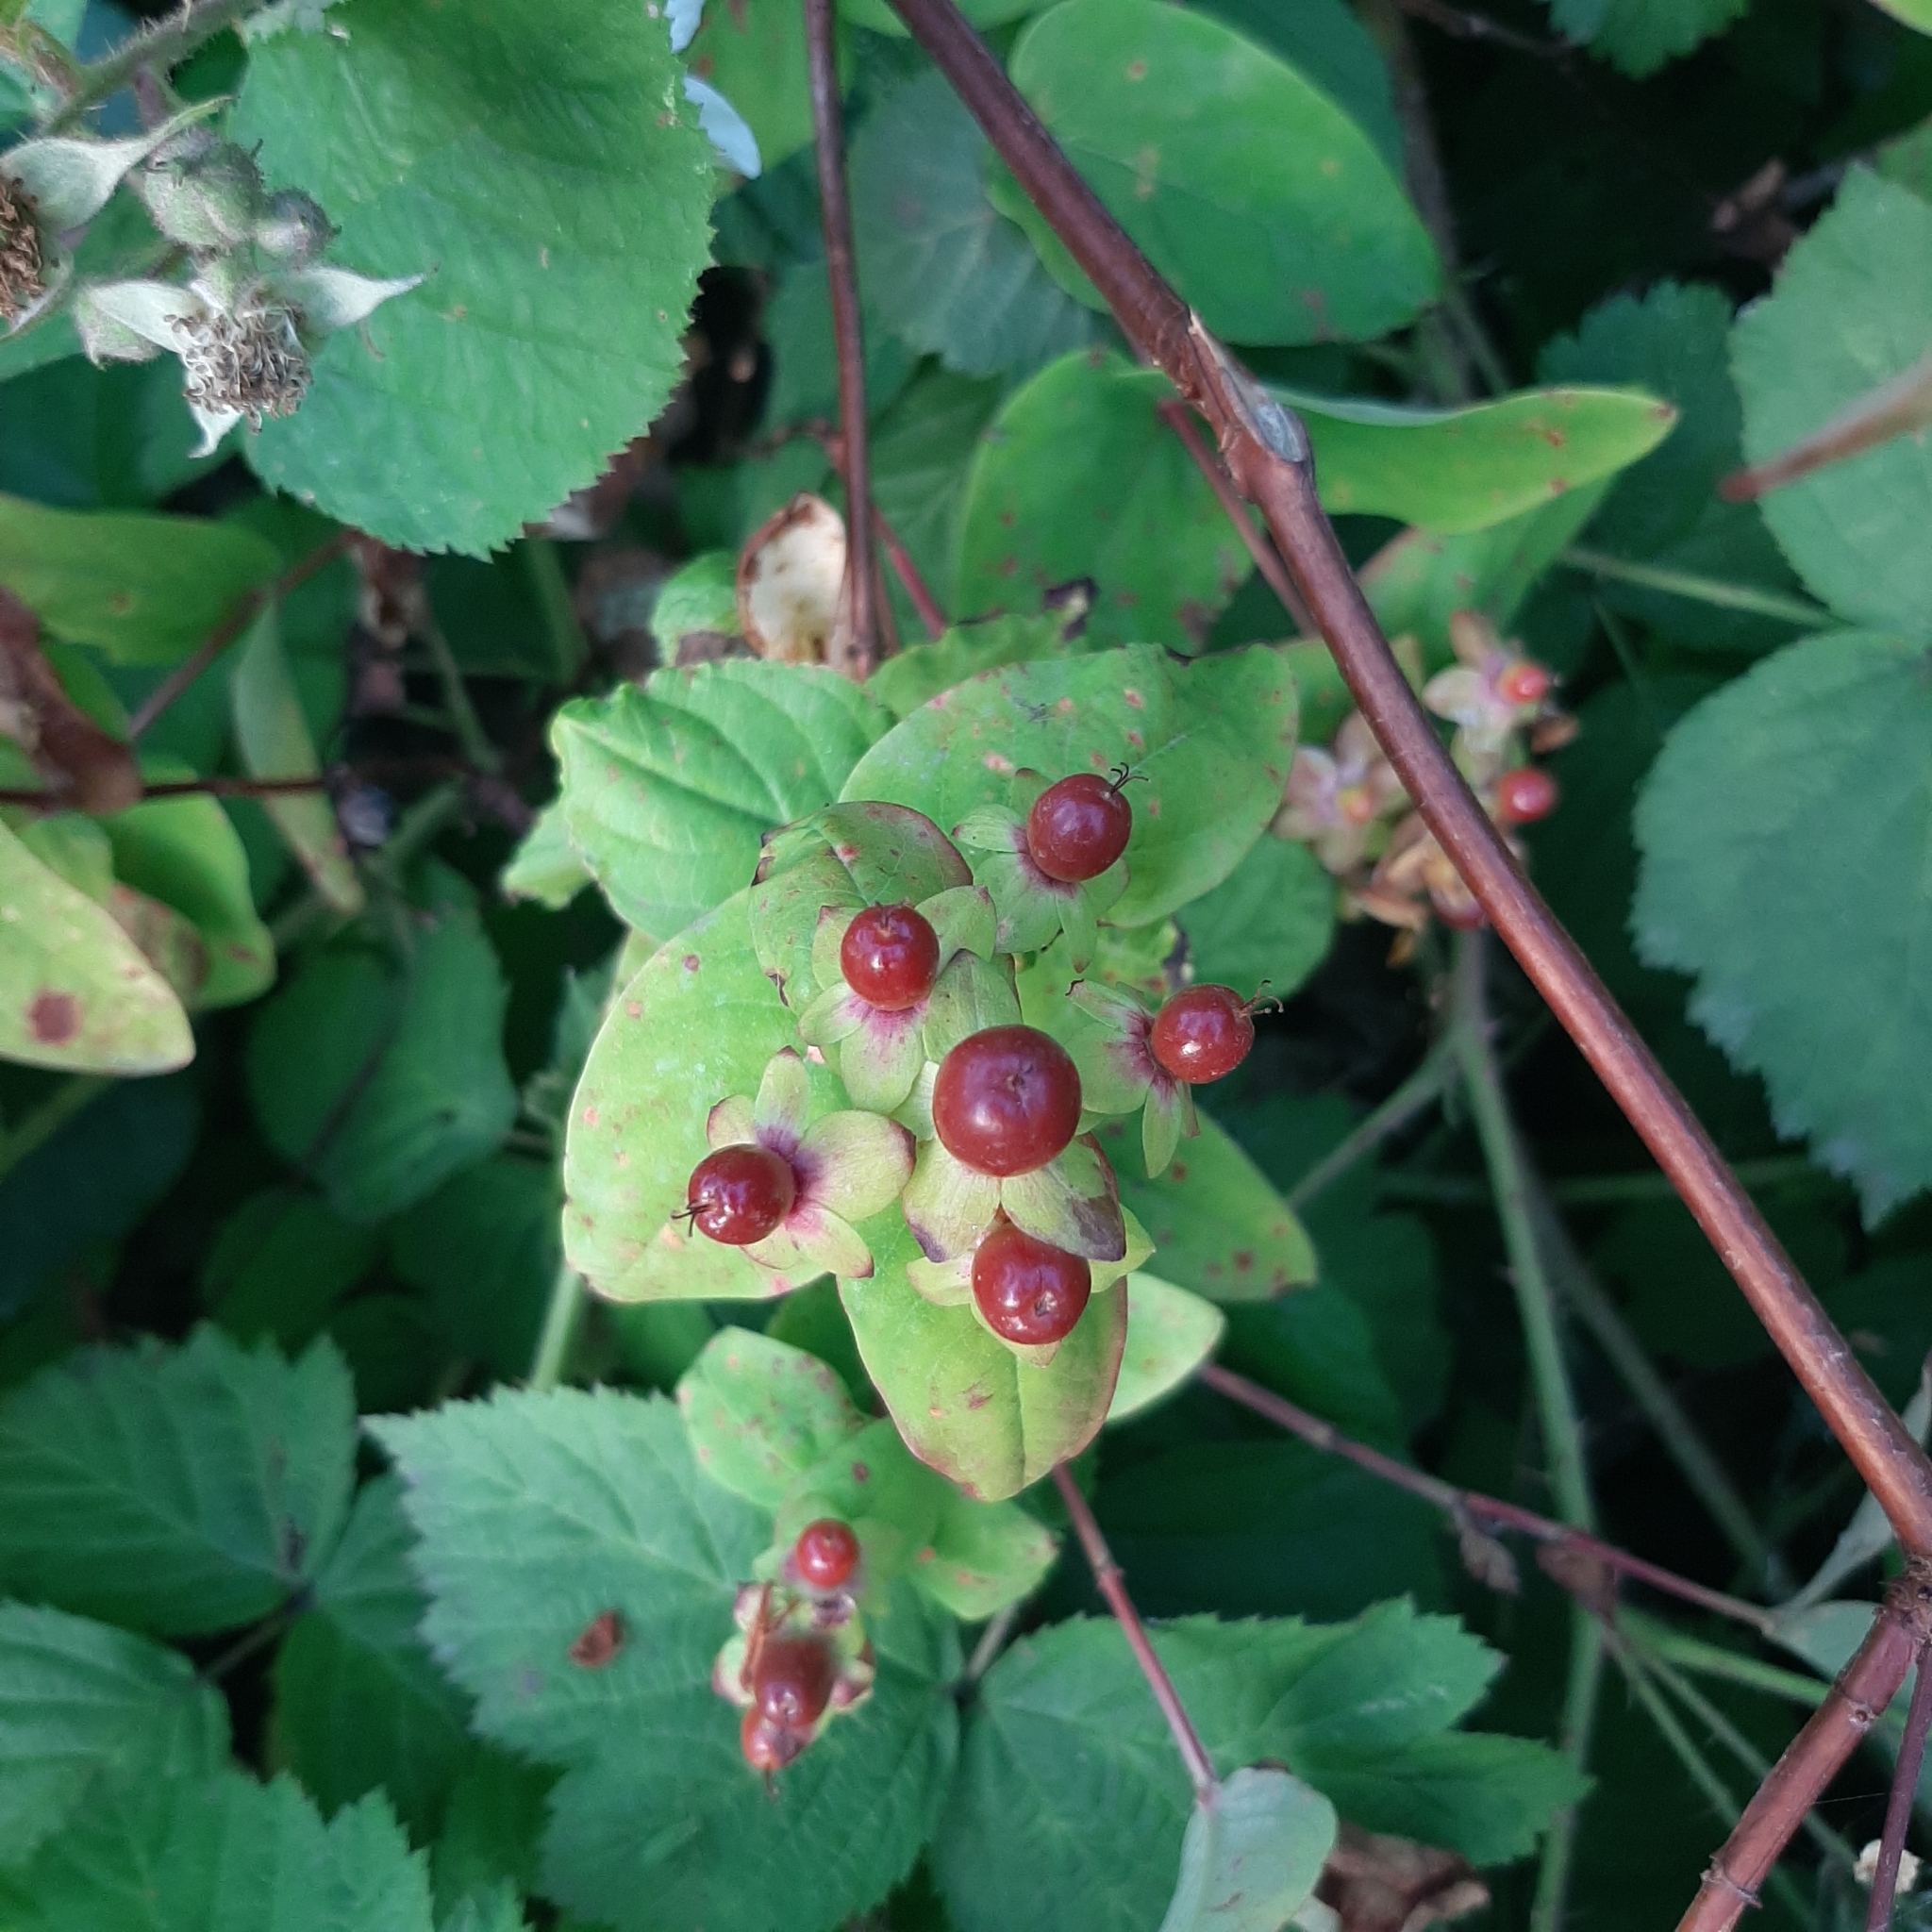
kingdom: Plantae
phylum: Tracheophyta
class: Magnoliopsida
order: Malpighiales
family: Hypericaceae
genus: Hypericum
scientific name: Hypericum androsaemum
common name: Sweet-amber
